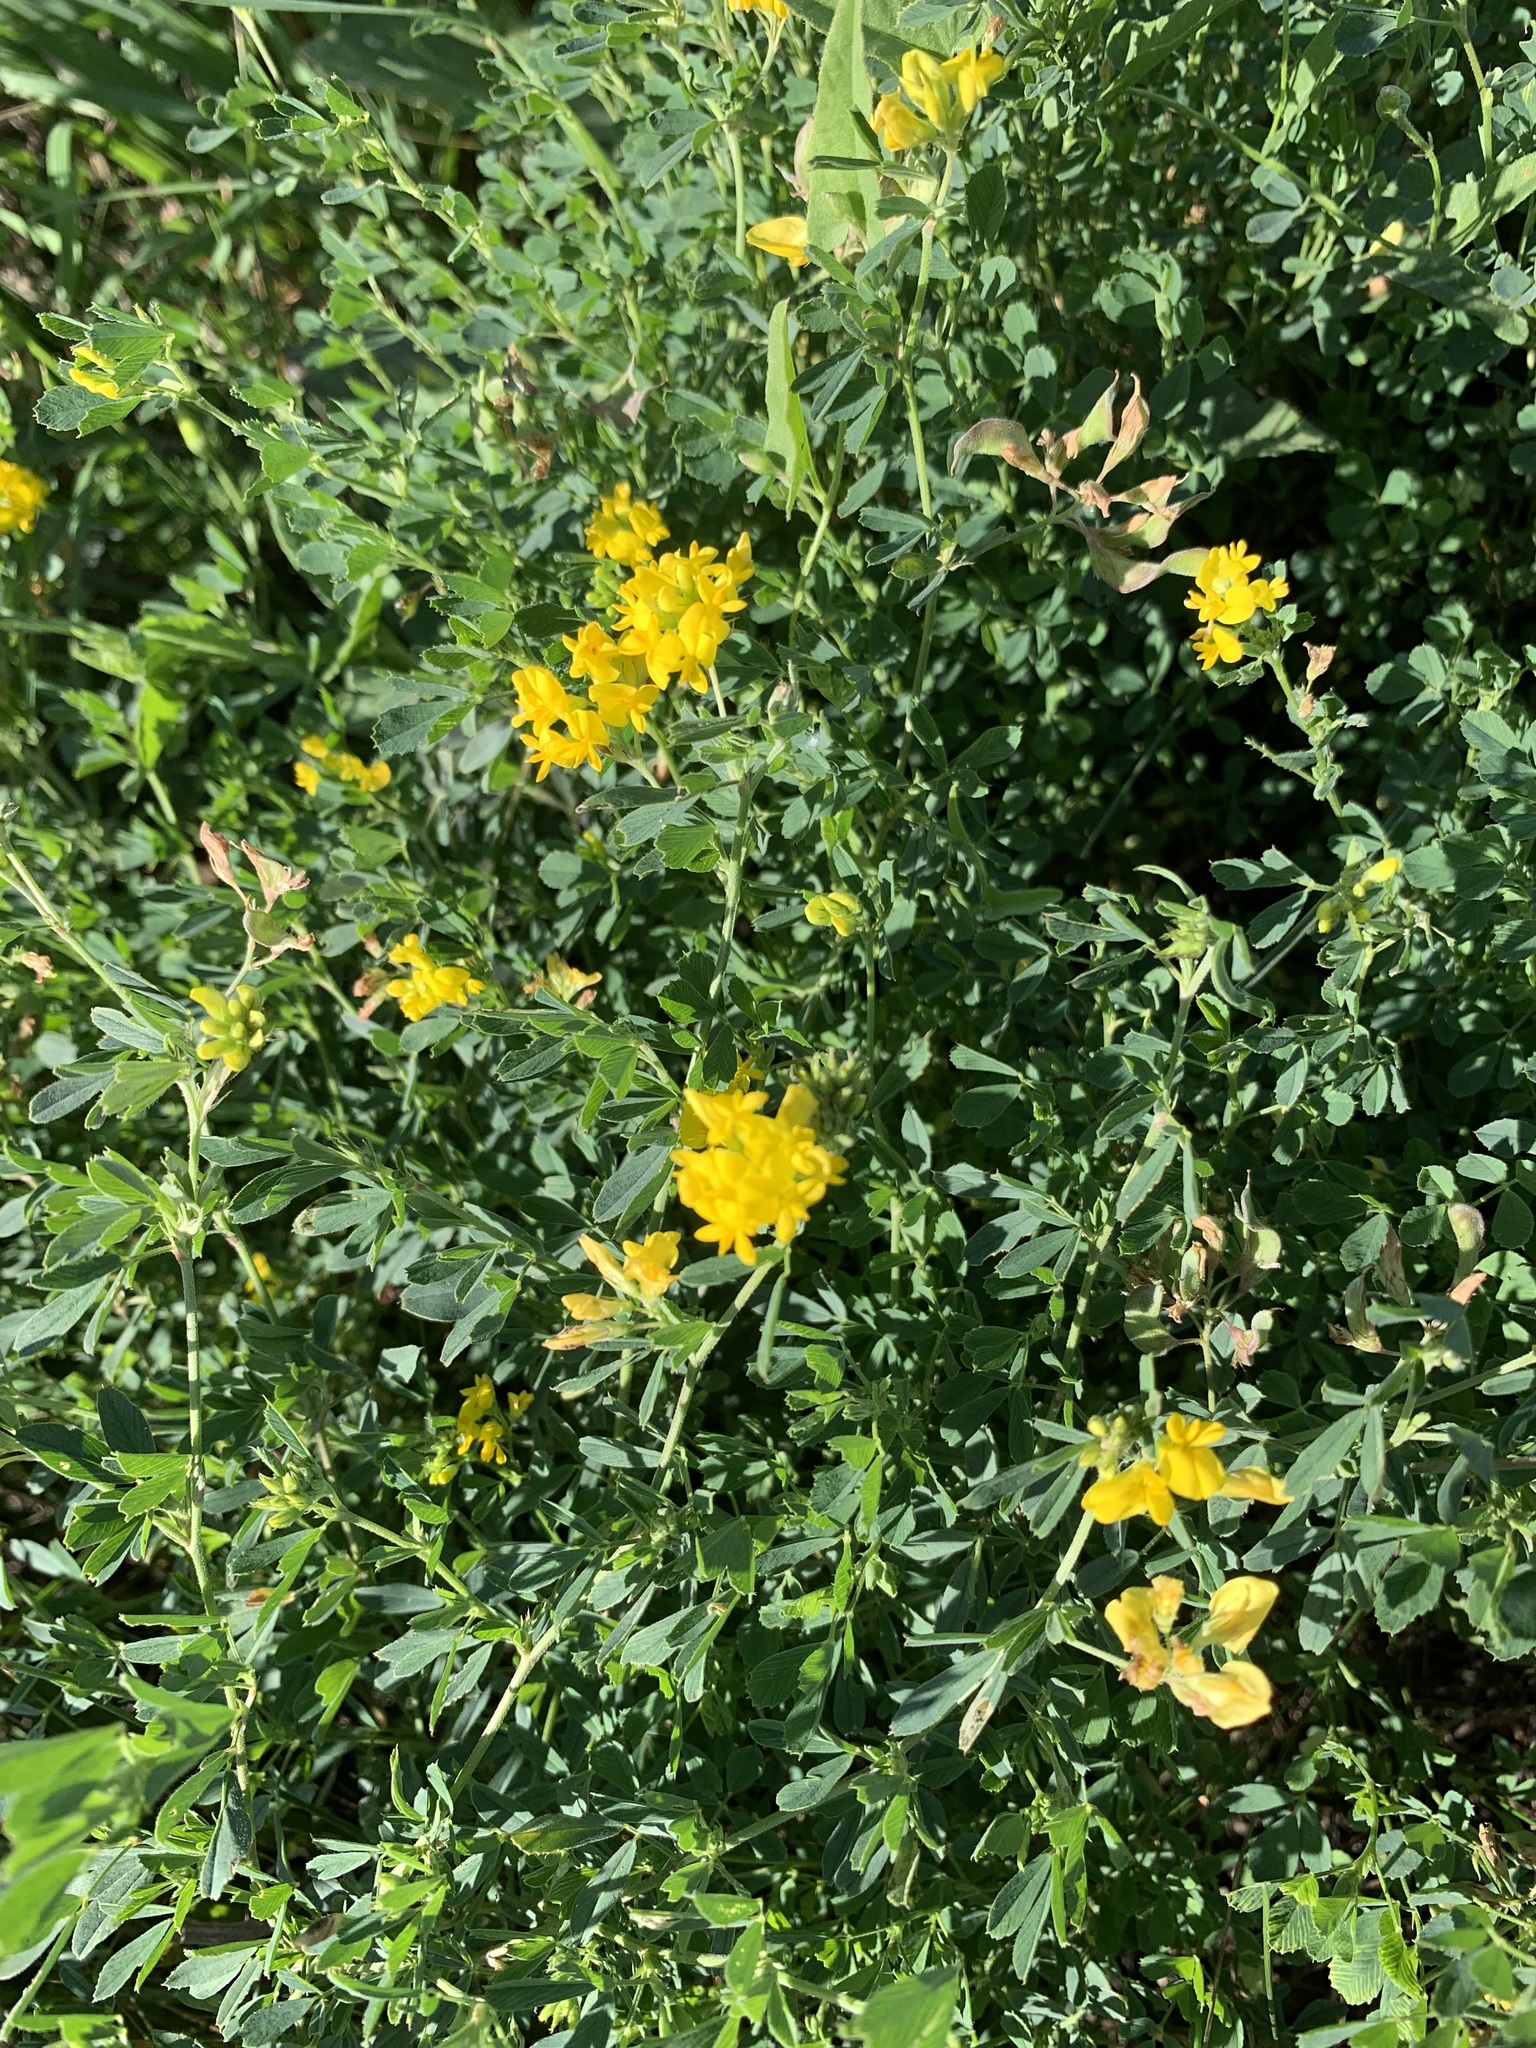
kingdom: Plantae
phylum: Tracheophyta
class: Magnoliopsida
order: Fabales
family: Fabaceae
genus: Medicago
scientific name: Medicago falcata
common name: Sickle medick
